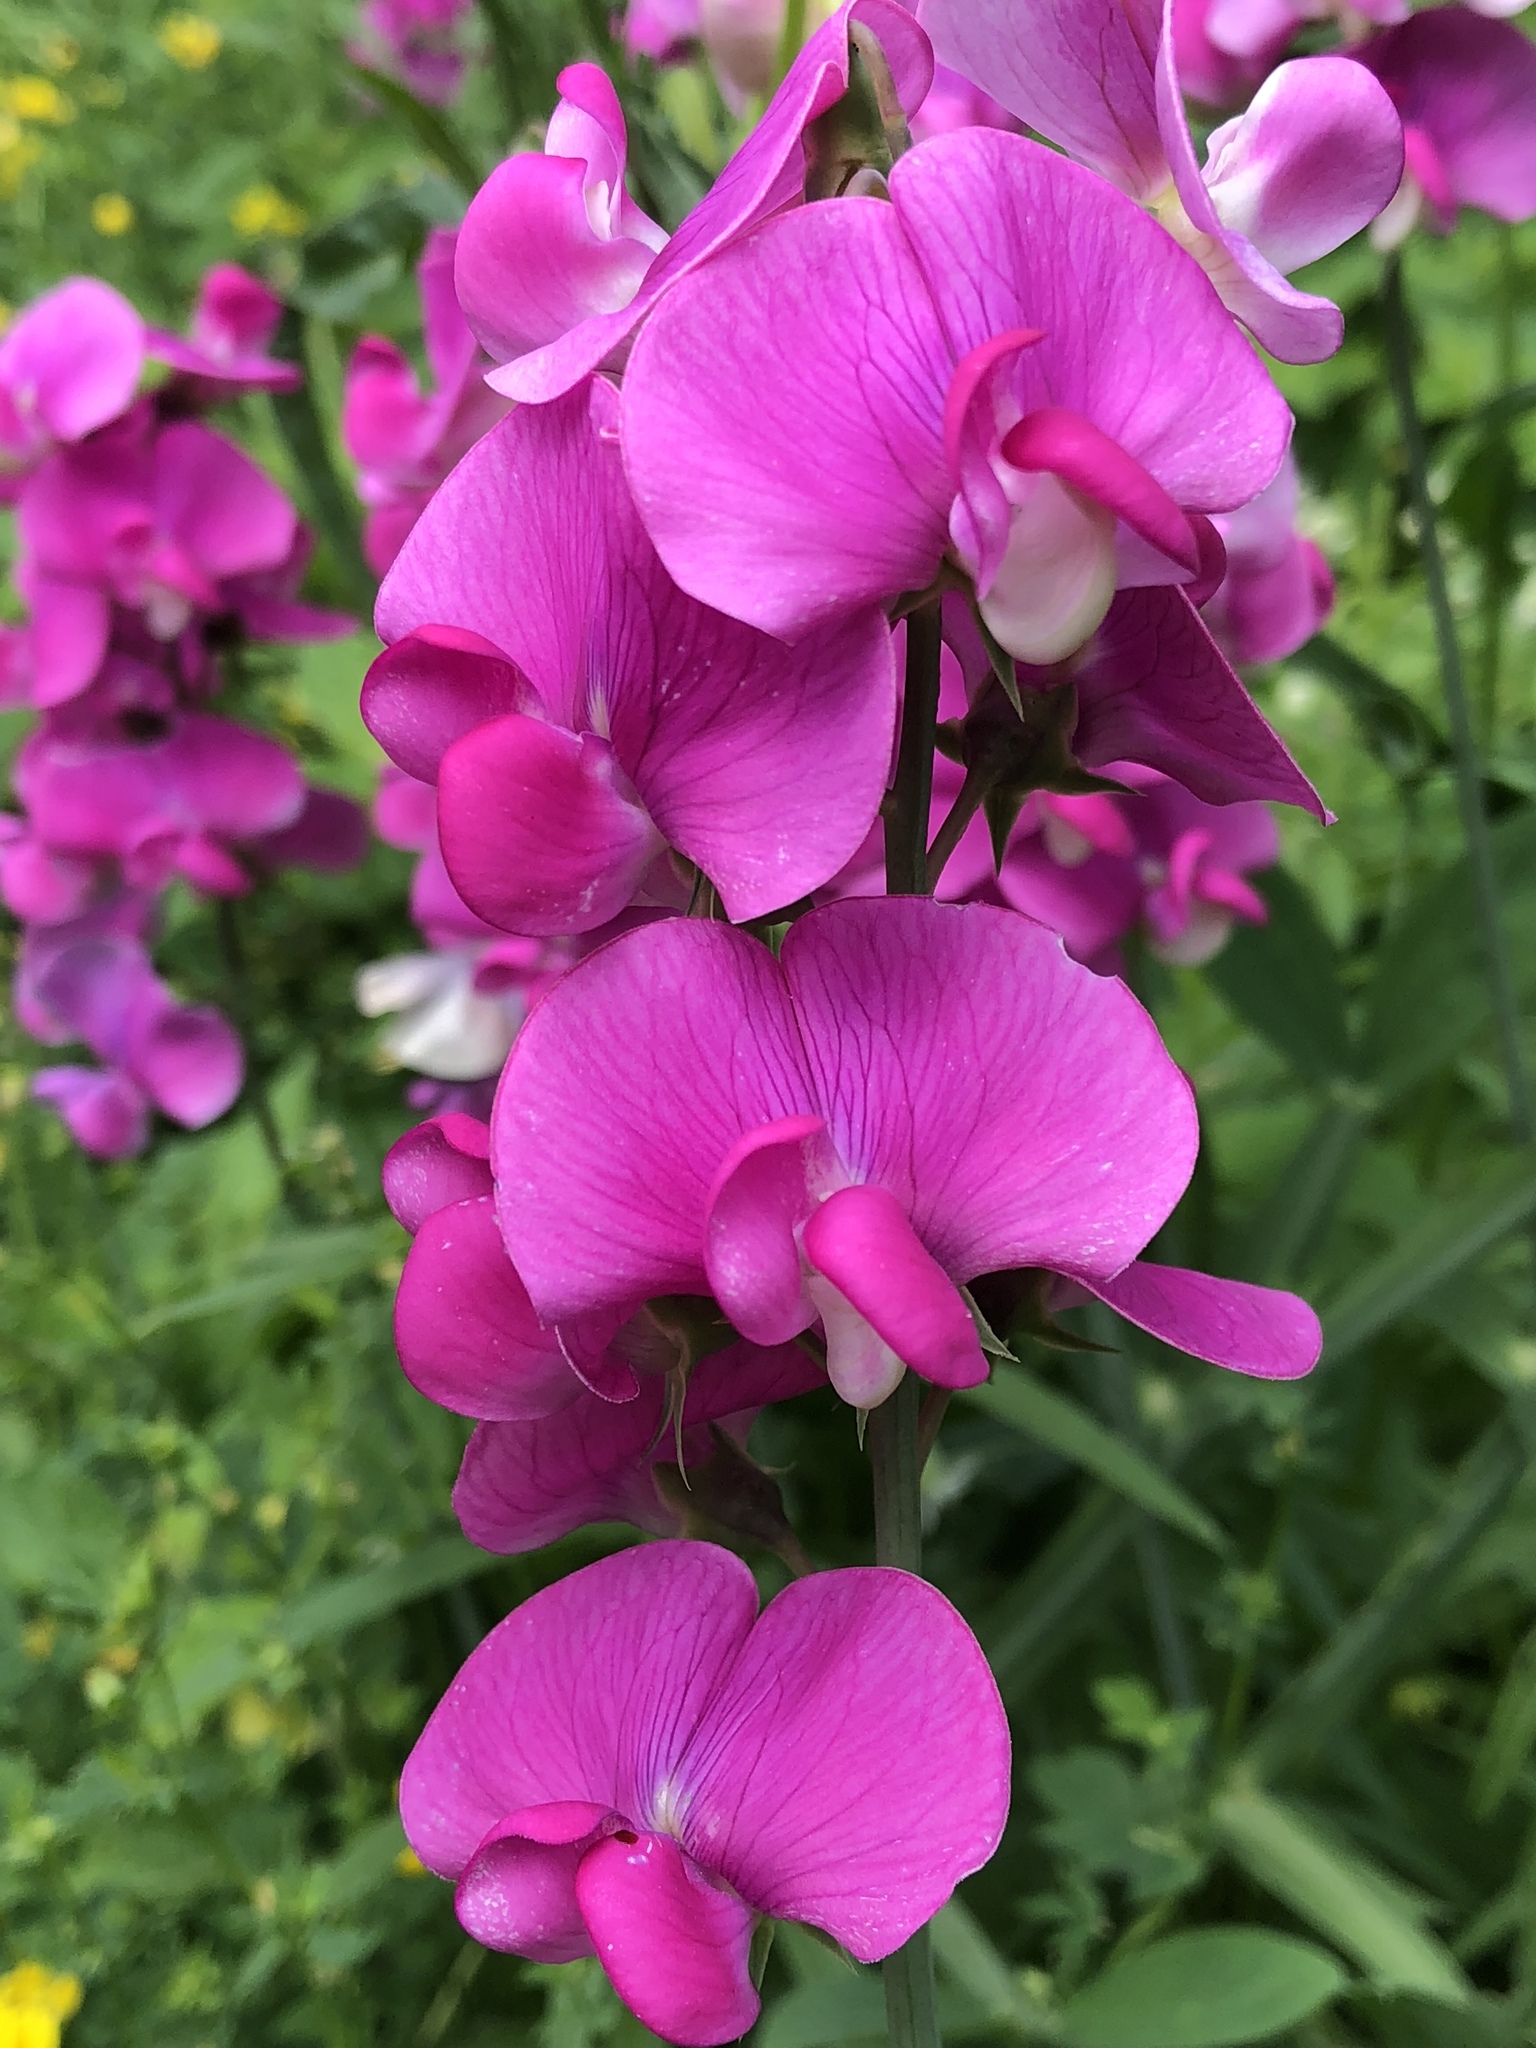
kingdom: Plantae
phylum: Tracheophyta
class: Magnoliopsida
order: Fabales
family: Fabaceae
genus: Lathyrus
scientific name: Lathyrus latifolius
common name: Perennial pea
